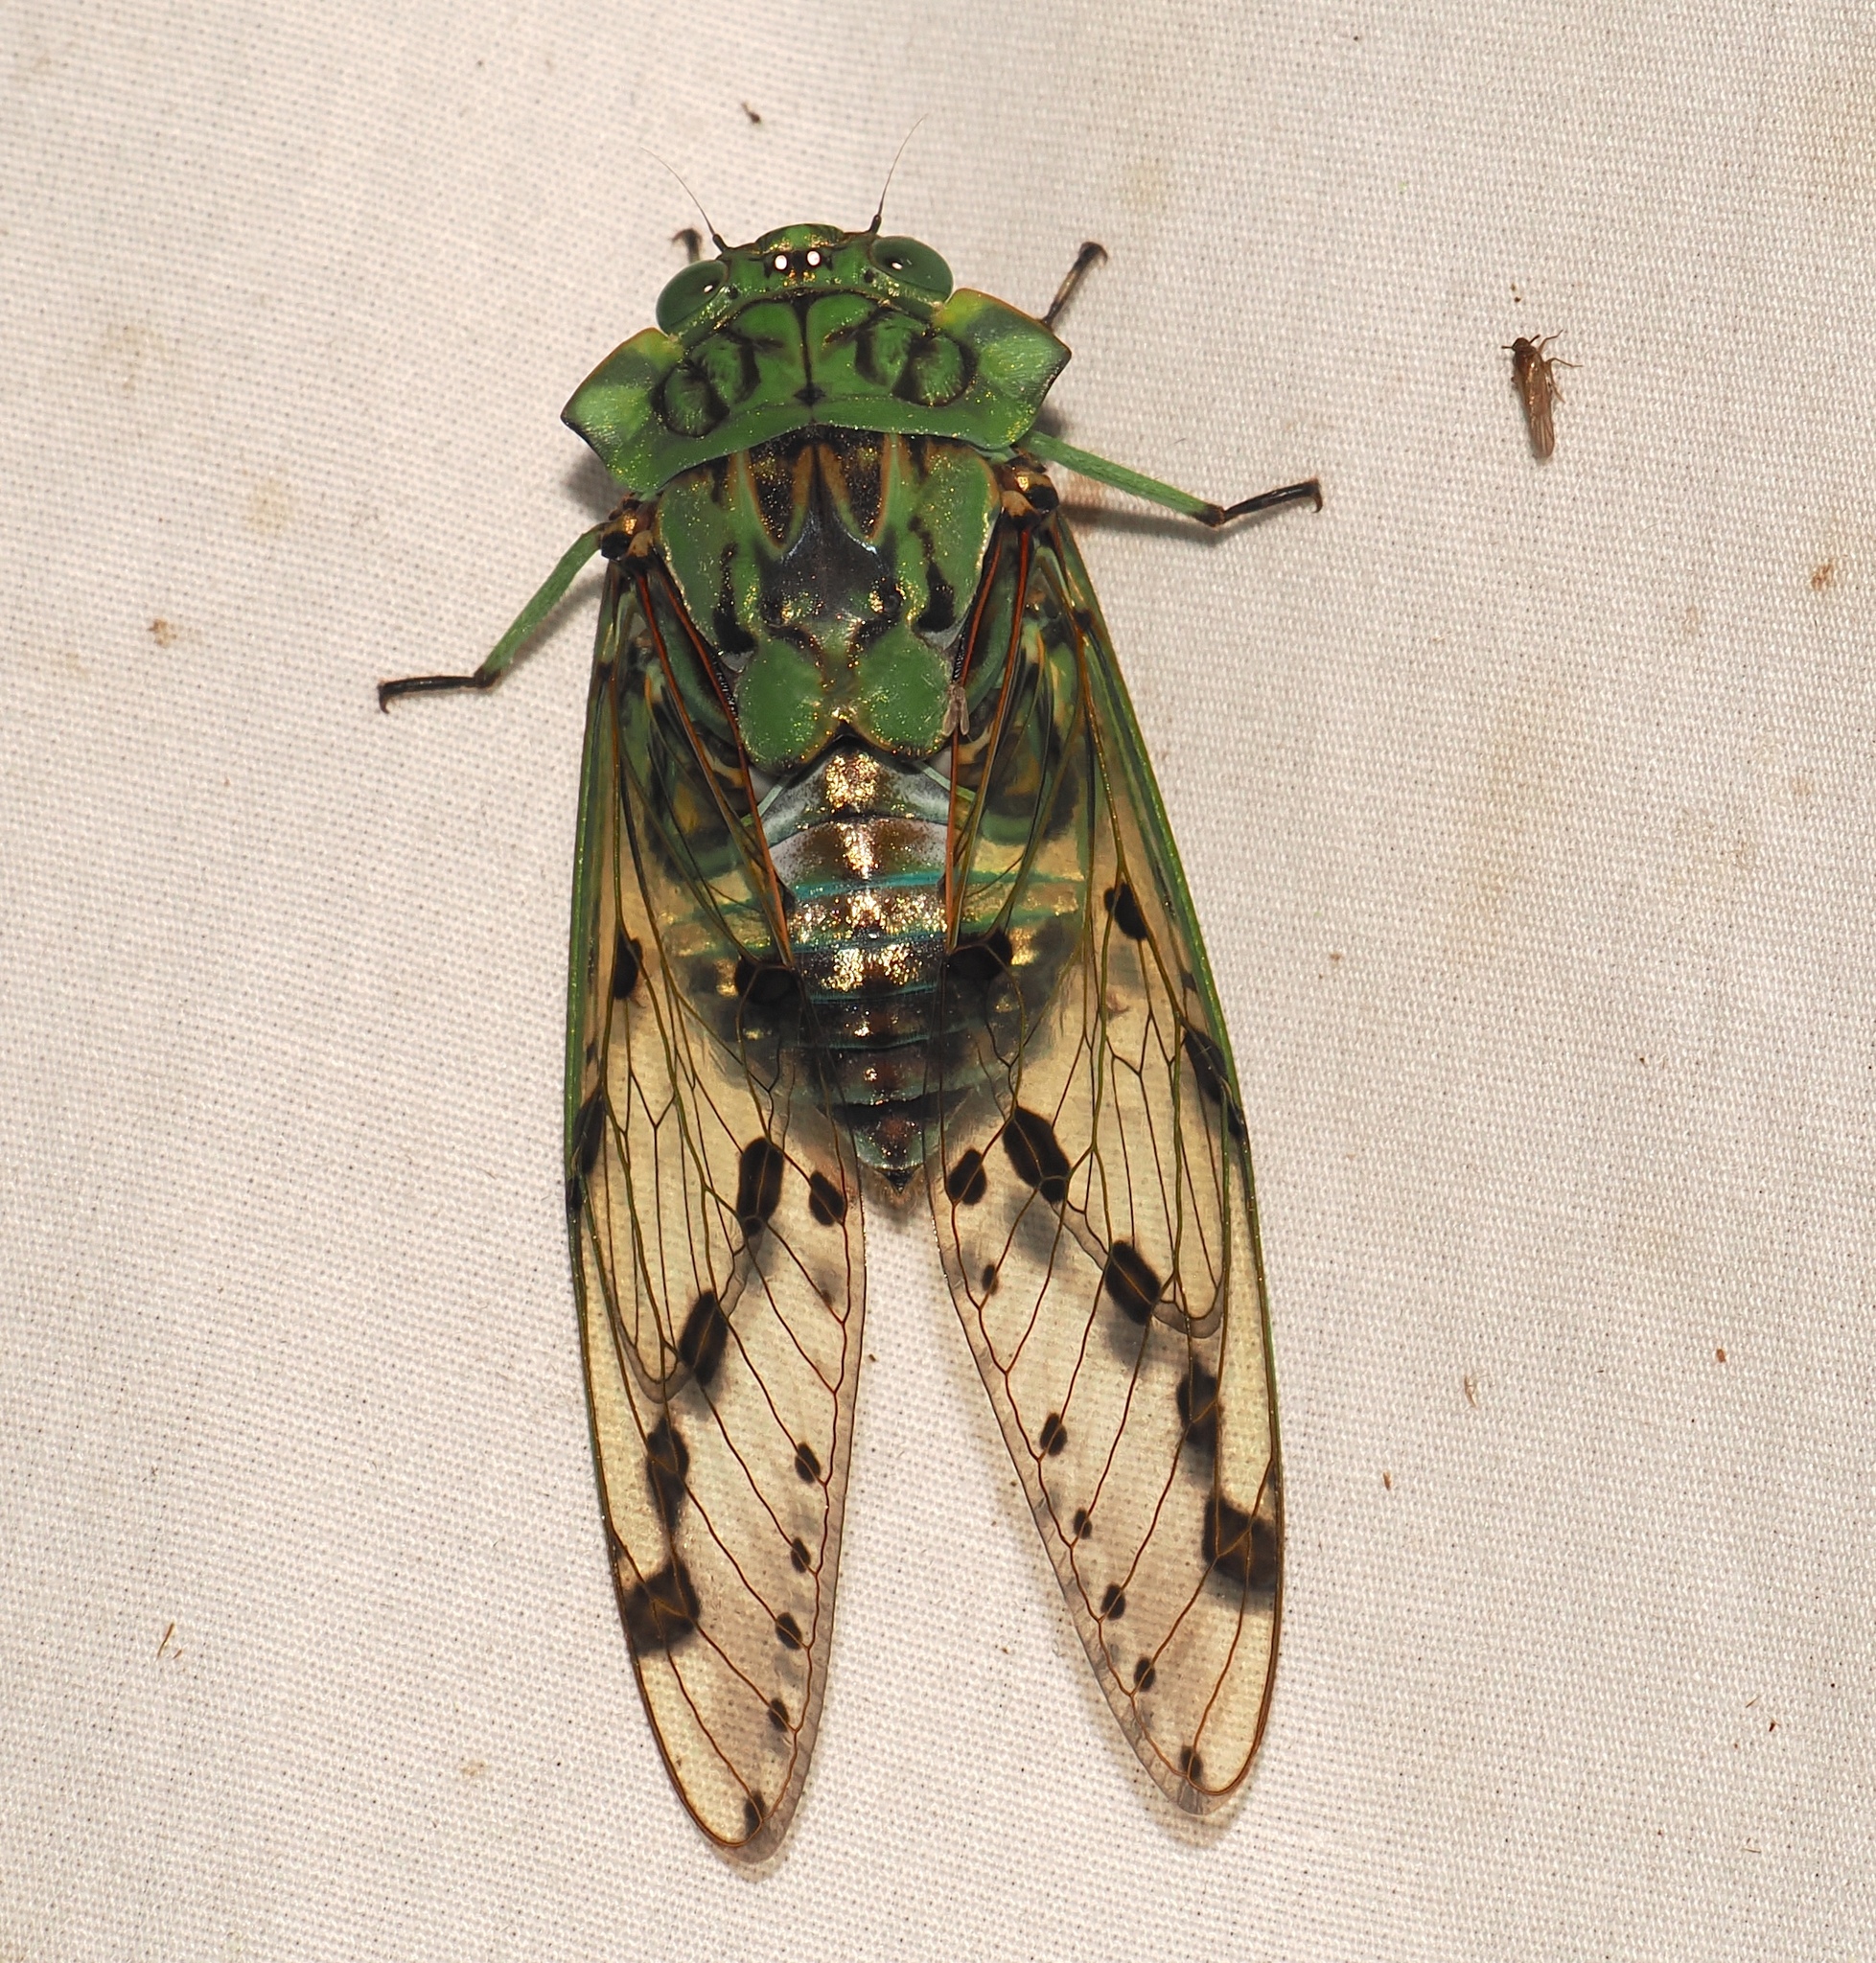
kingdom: Animalia
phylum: Arthropoda
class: Insecta
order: Hemiptera
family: Cicadidae
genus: Zammara
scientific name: Zammara tympanum
